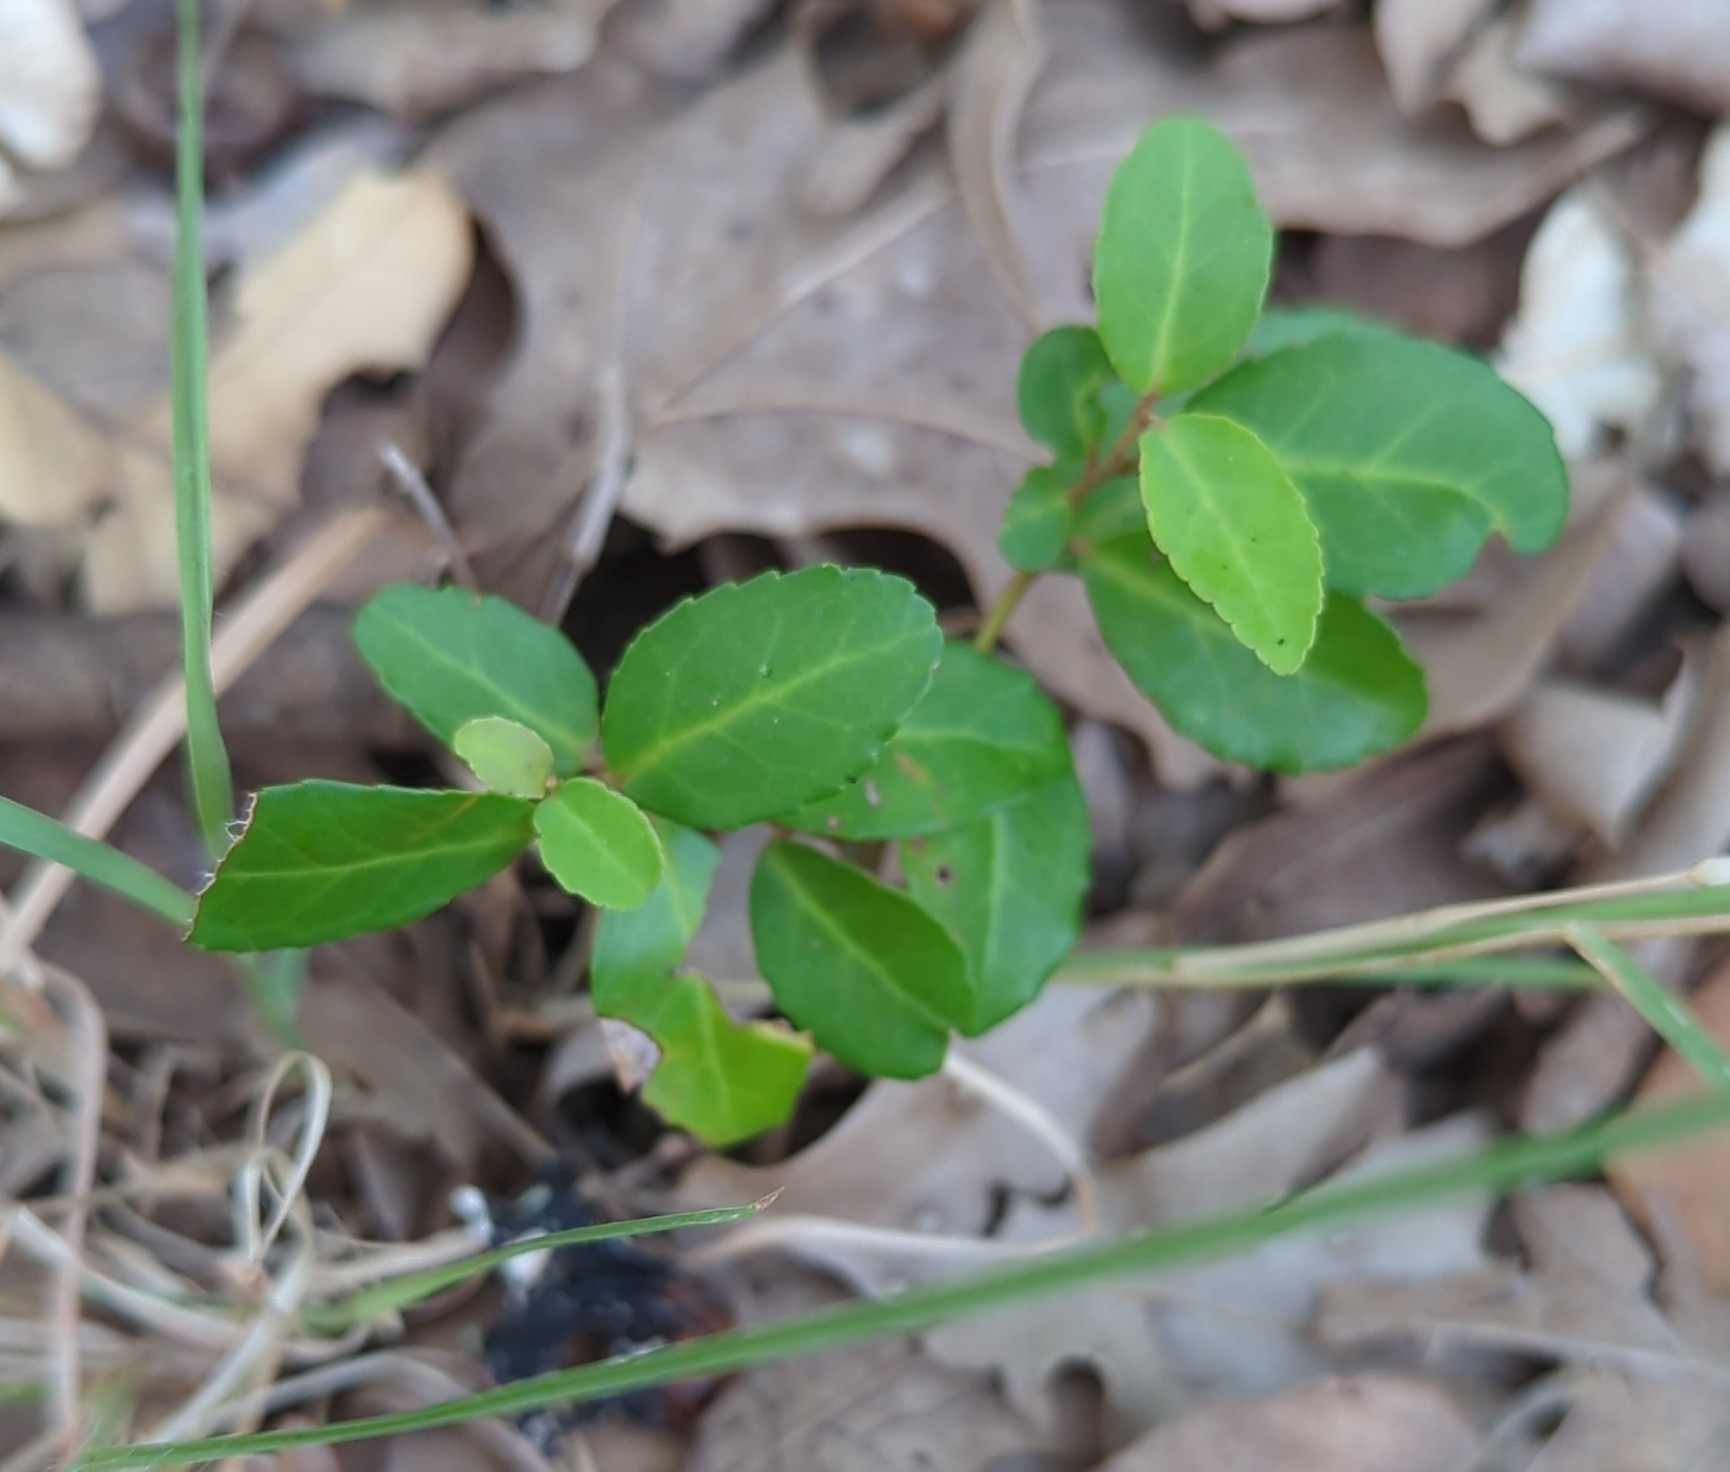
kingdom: Plantae
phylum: Tracheophyta
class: Magnoliopsida
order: Aquifoliales
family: Aquifoliaceae
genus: Ilex
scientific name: Ilex vomitoria
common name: Yaupon holly
